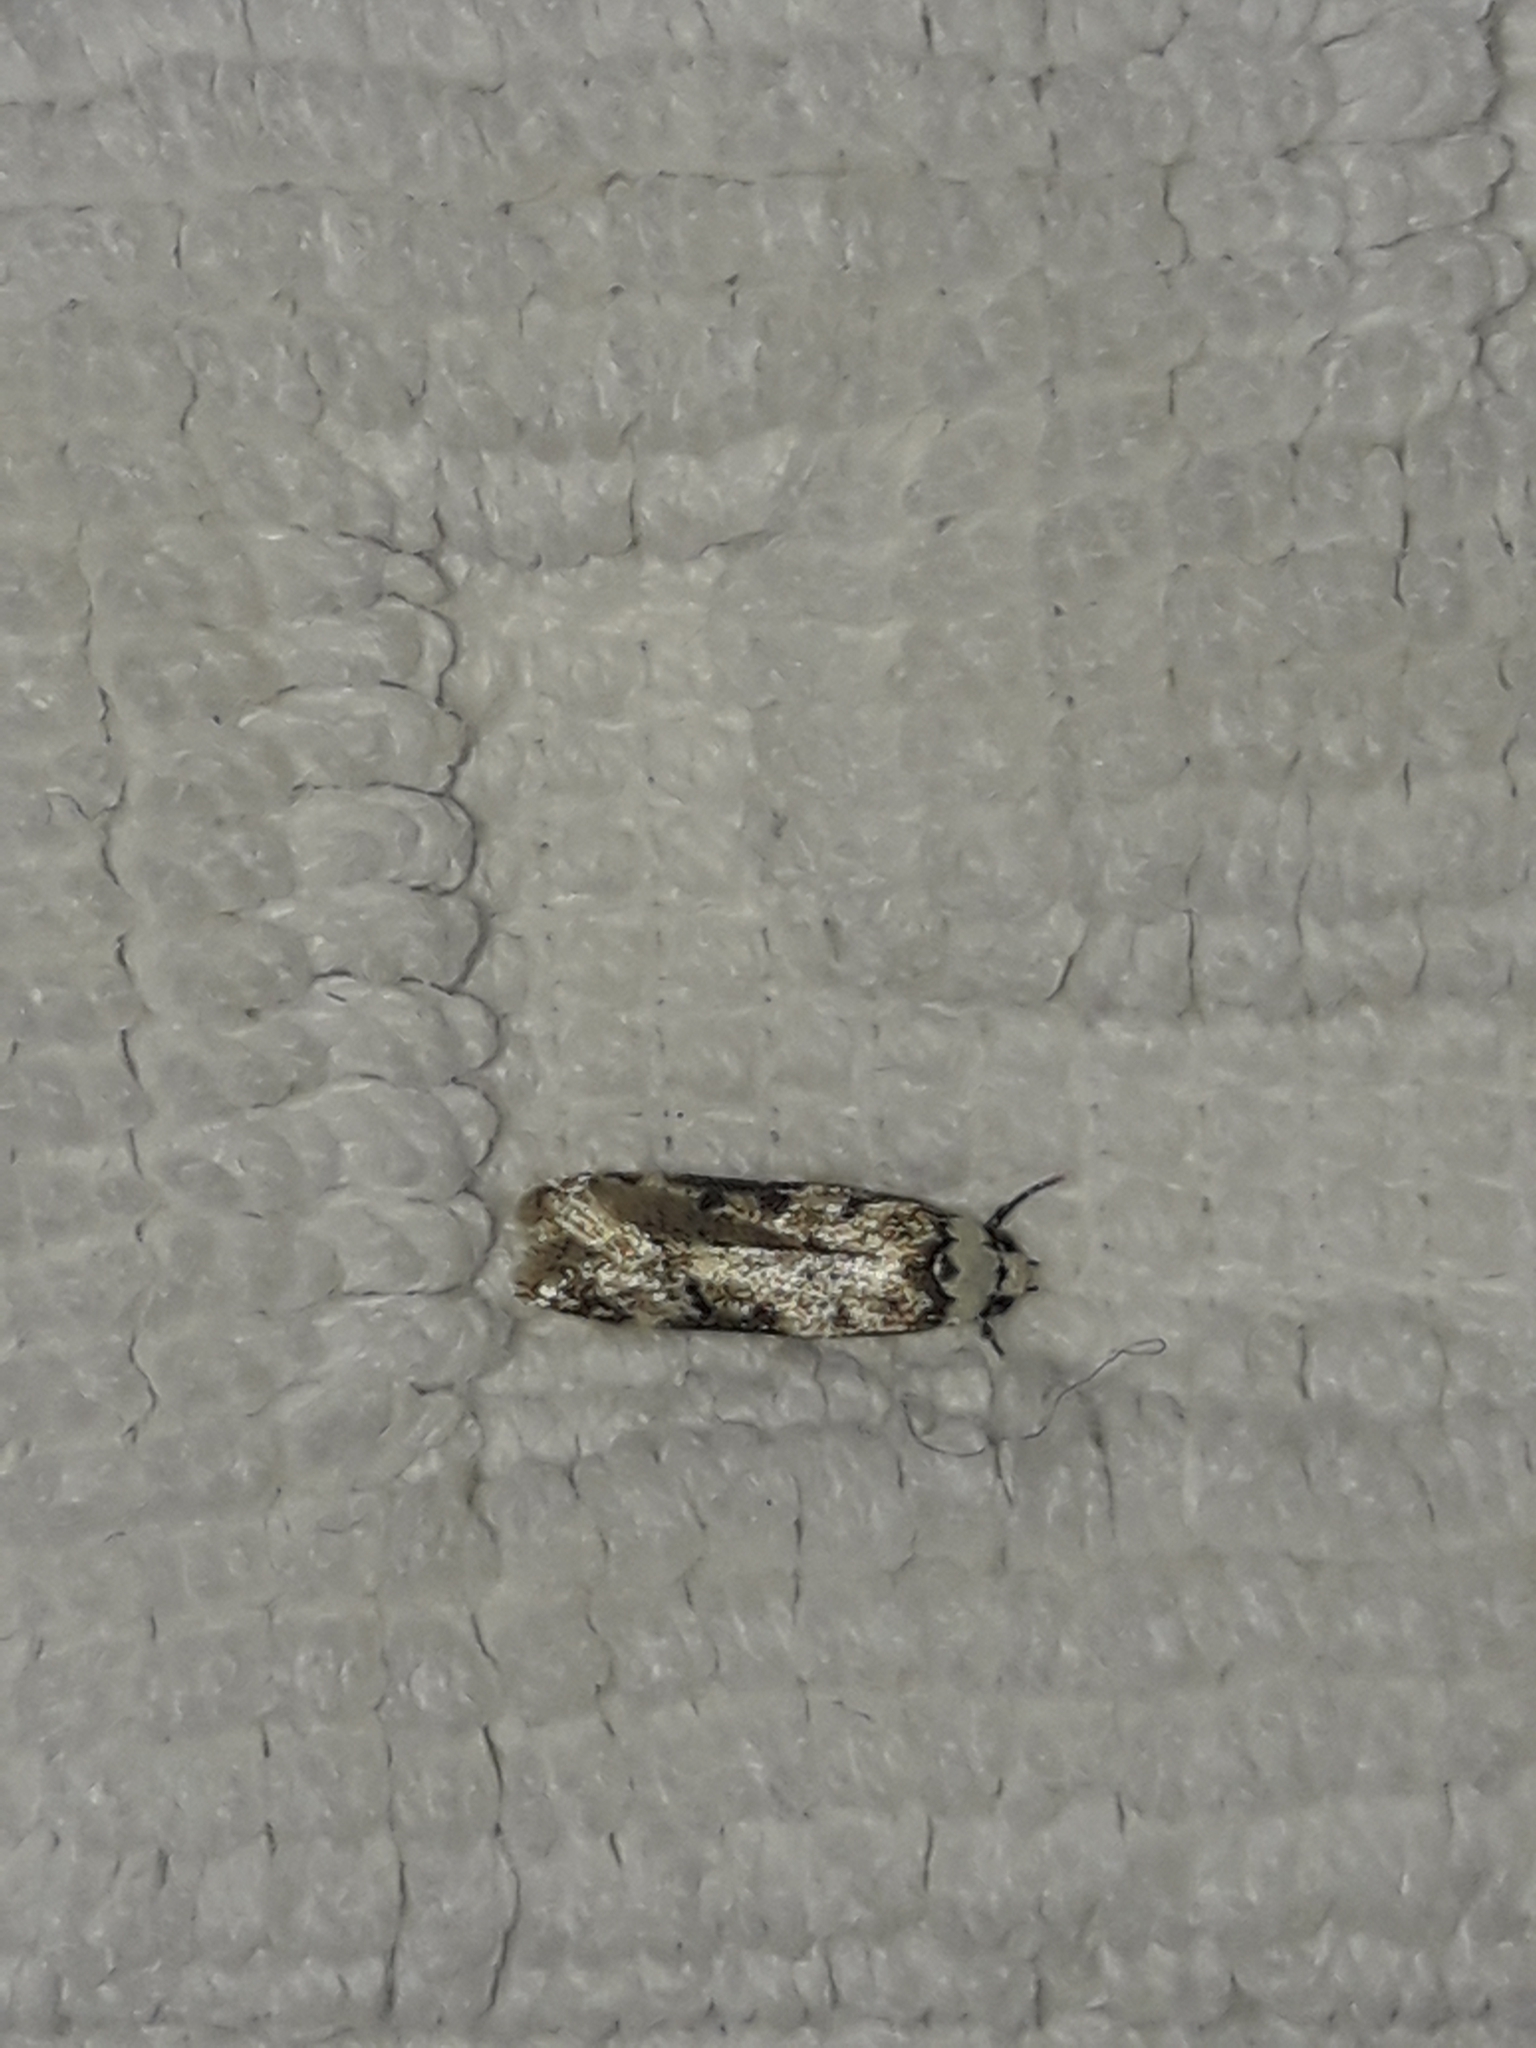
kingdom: Animalia
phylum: Arthropoda
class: Insecta
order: Lepidoptera
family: Oecophoridae
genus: Endrosis
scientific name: Endrosis sarcitrella
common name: White-shouldered house moth
